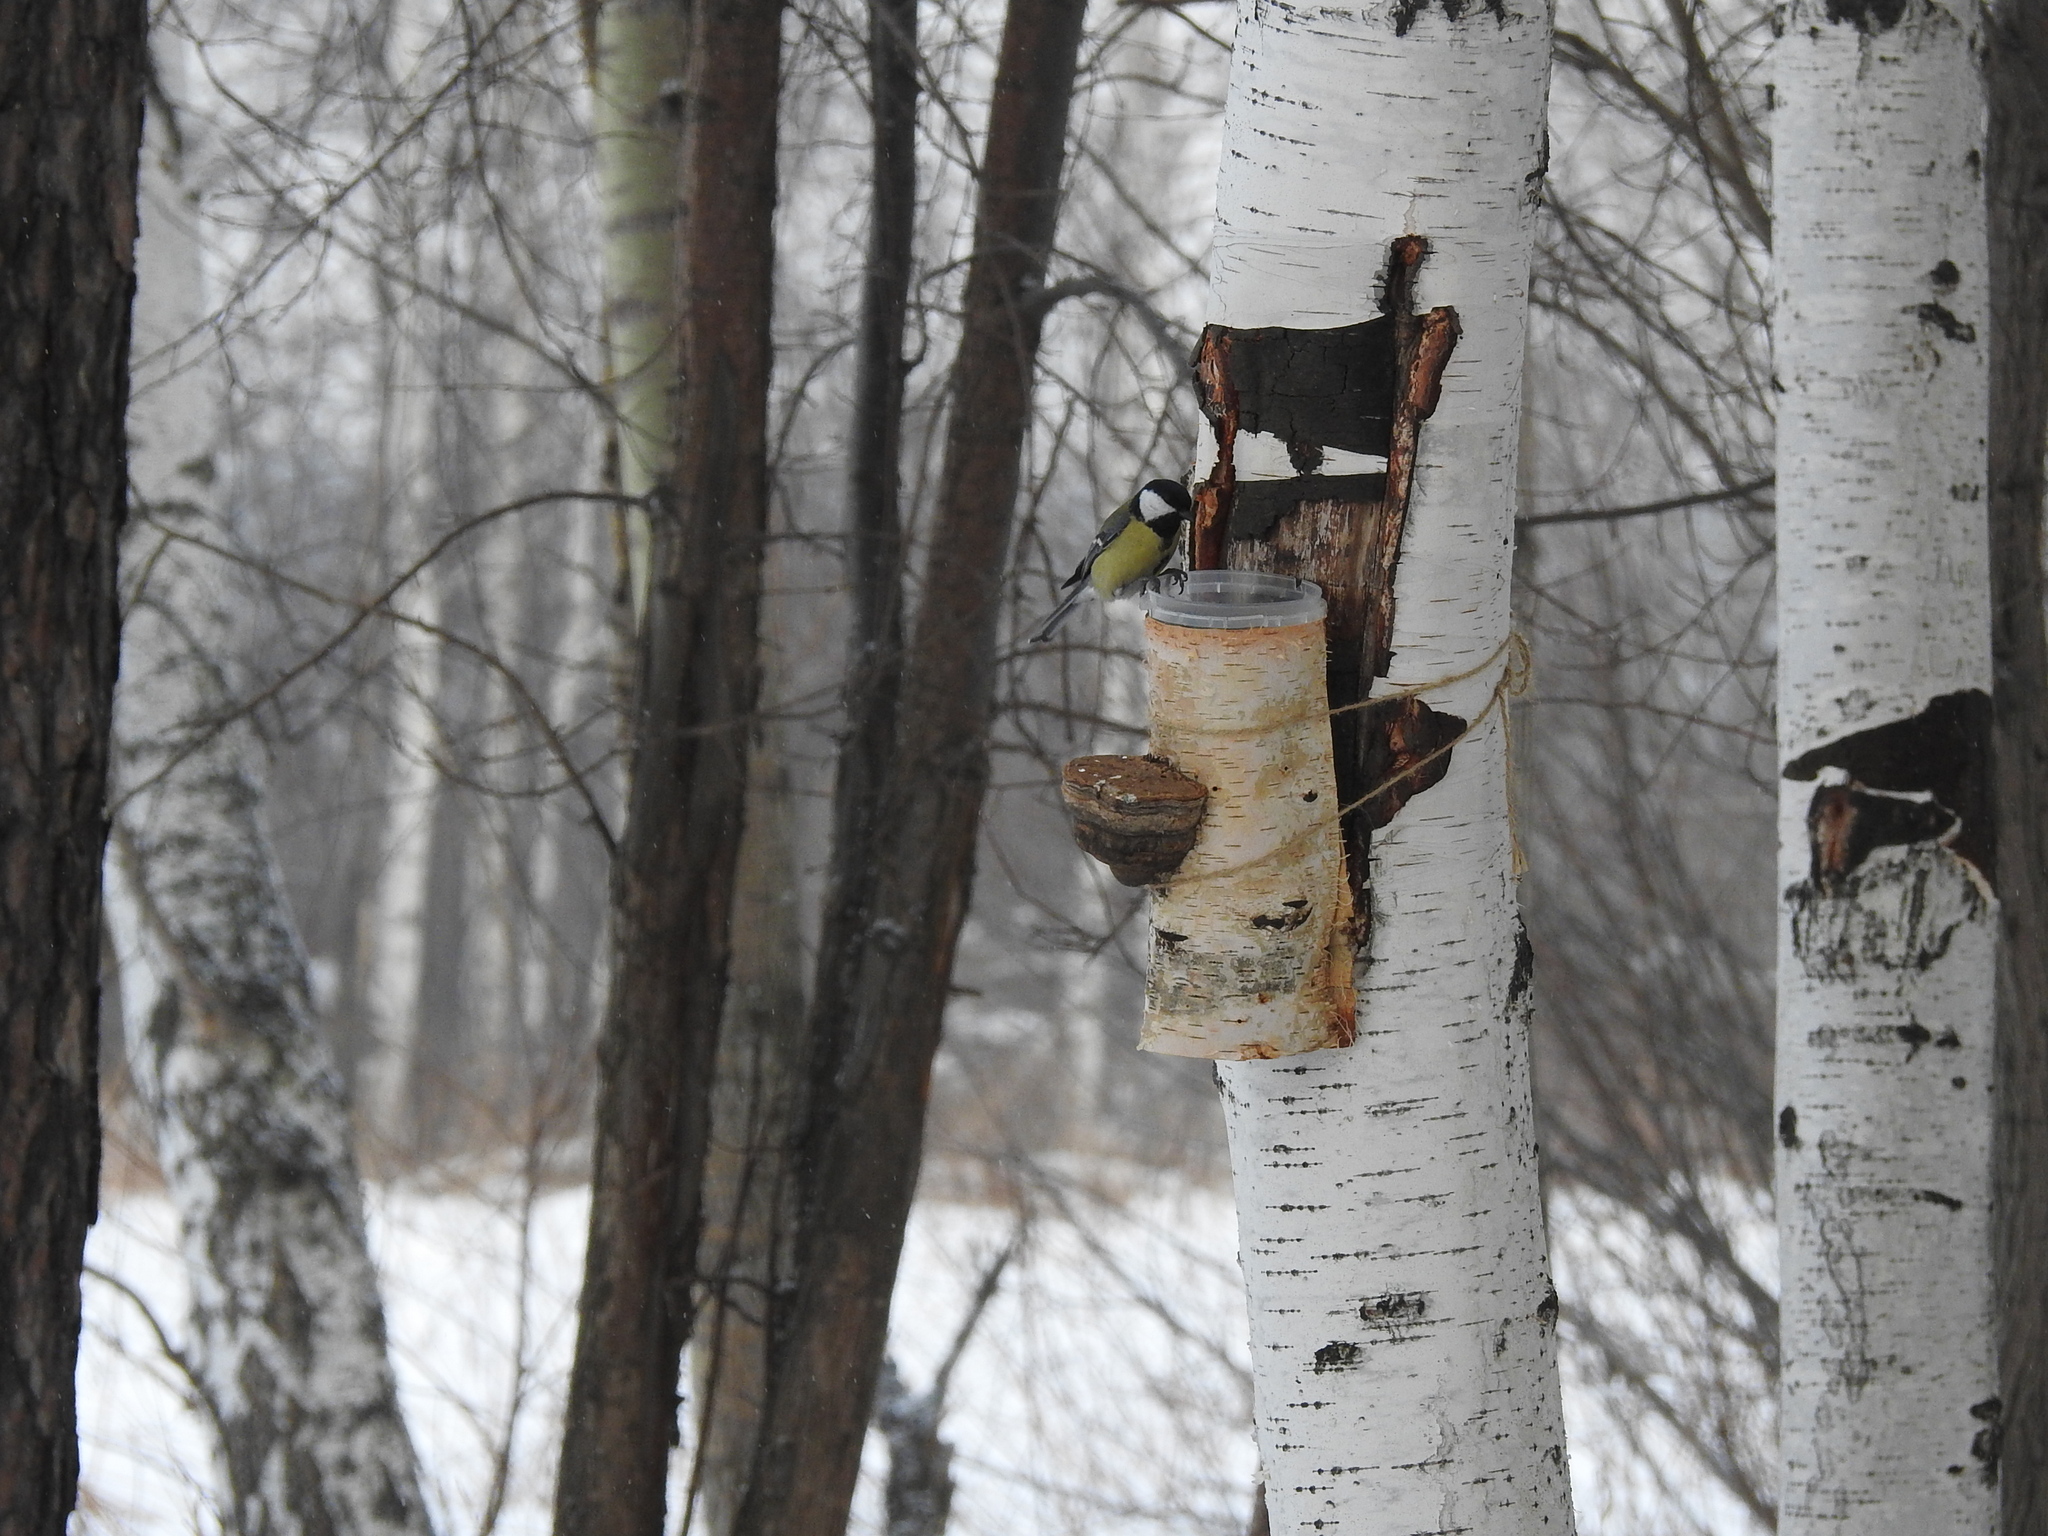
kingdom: Animalia
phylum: Chordata
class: Aves
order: Passeriformes
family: Paridae
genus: Parus
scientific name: Parus major
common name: Great tit
